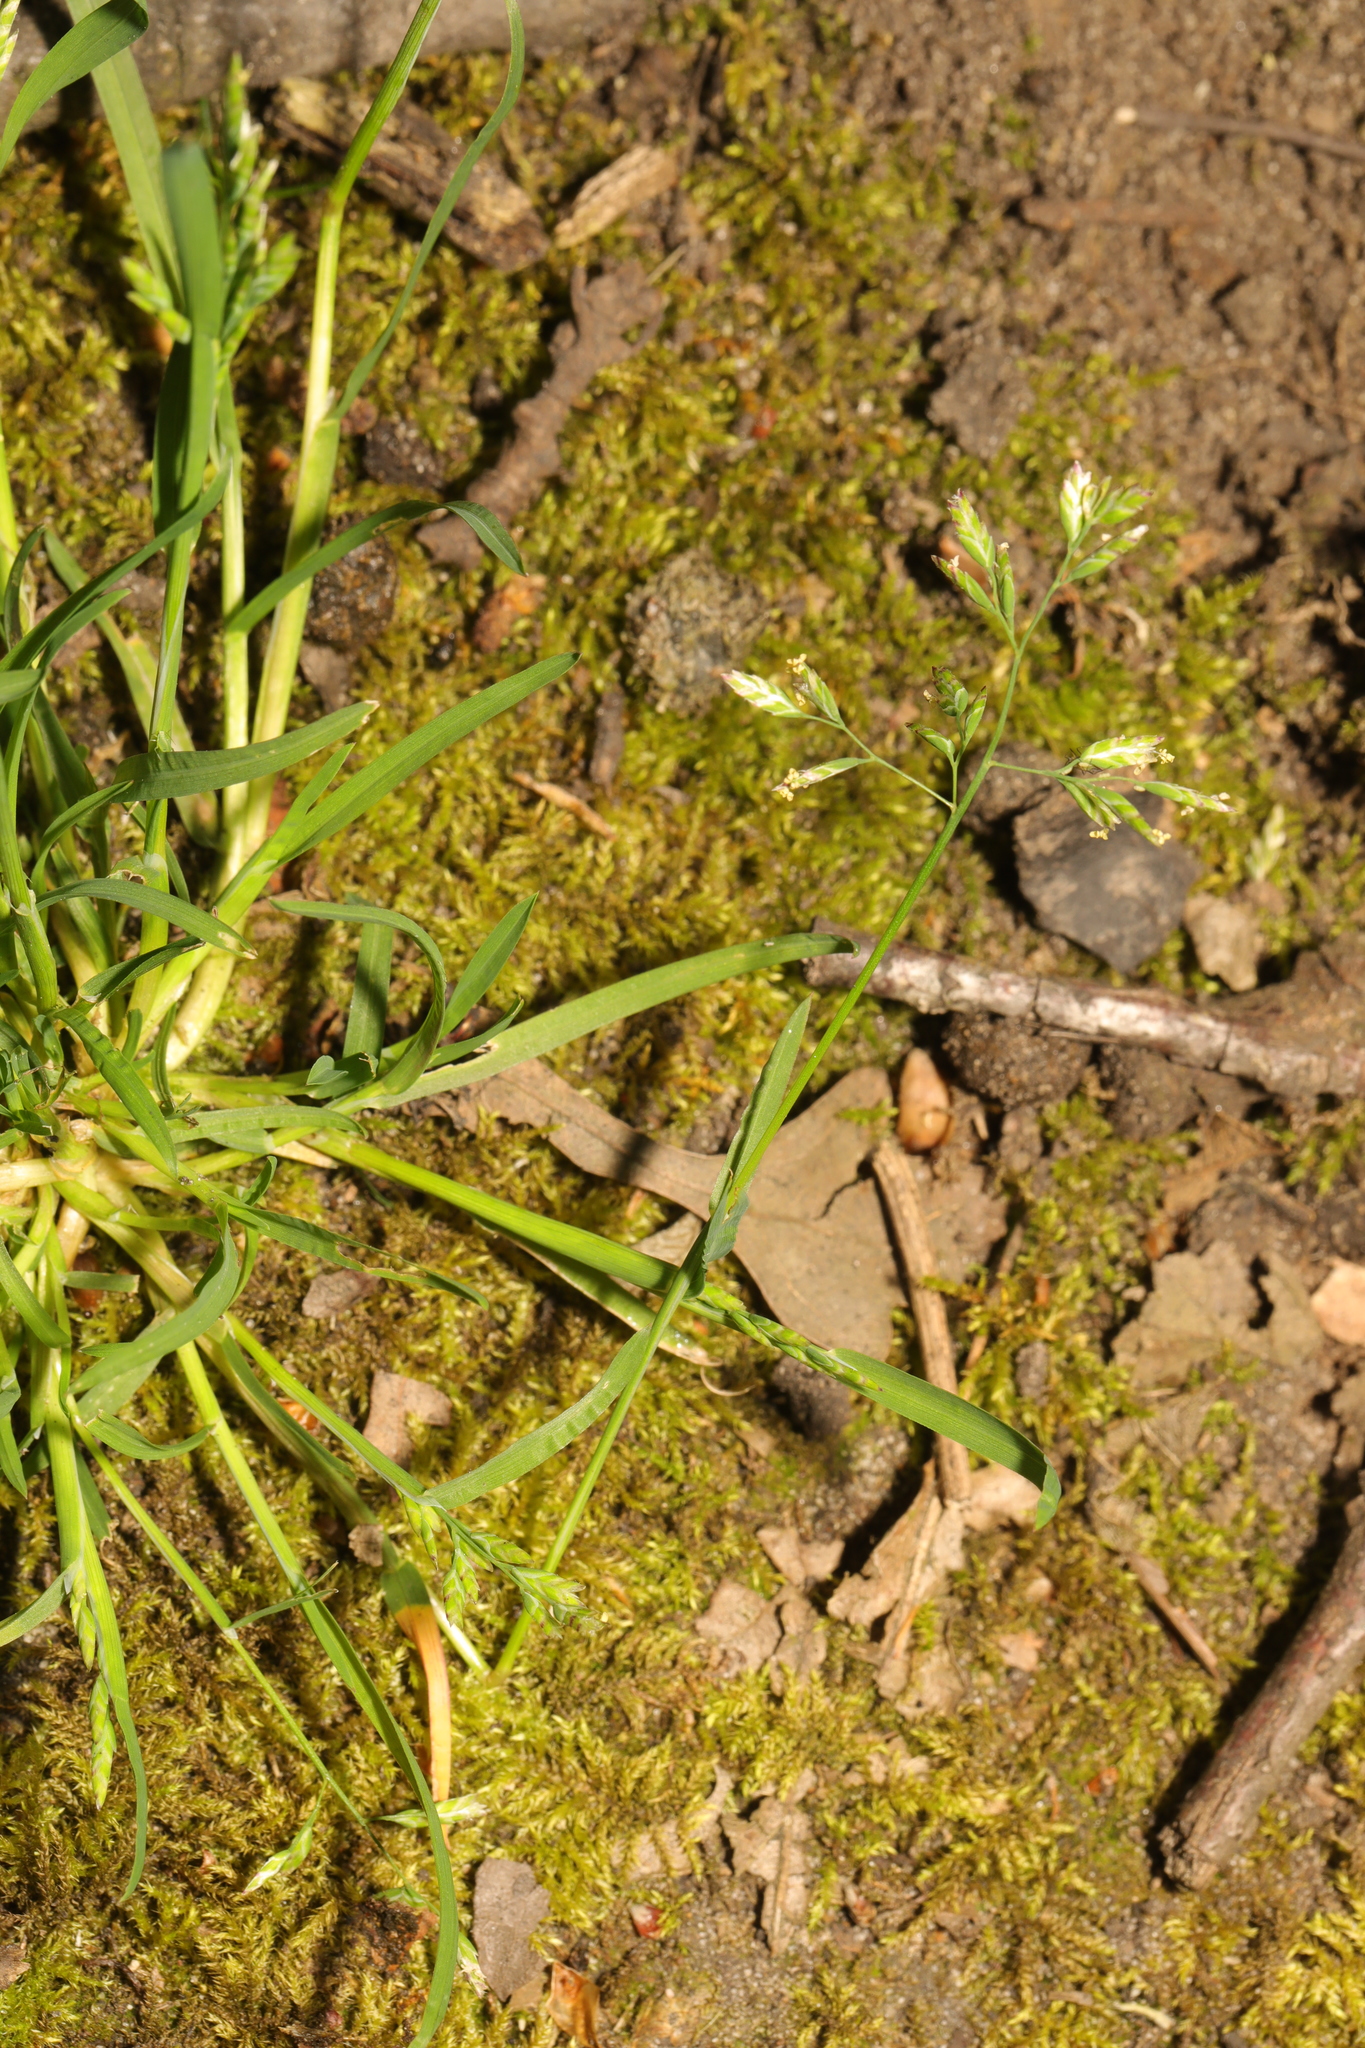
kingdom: Plantae
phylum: Tracheophyta
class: Liliopsida
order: Poales
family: Poaceae
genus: Poa
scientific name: Poa annua
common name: Annual bluegrass
